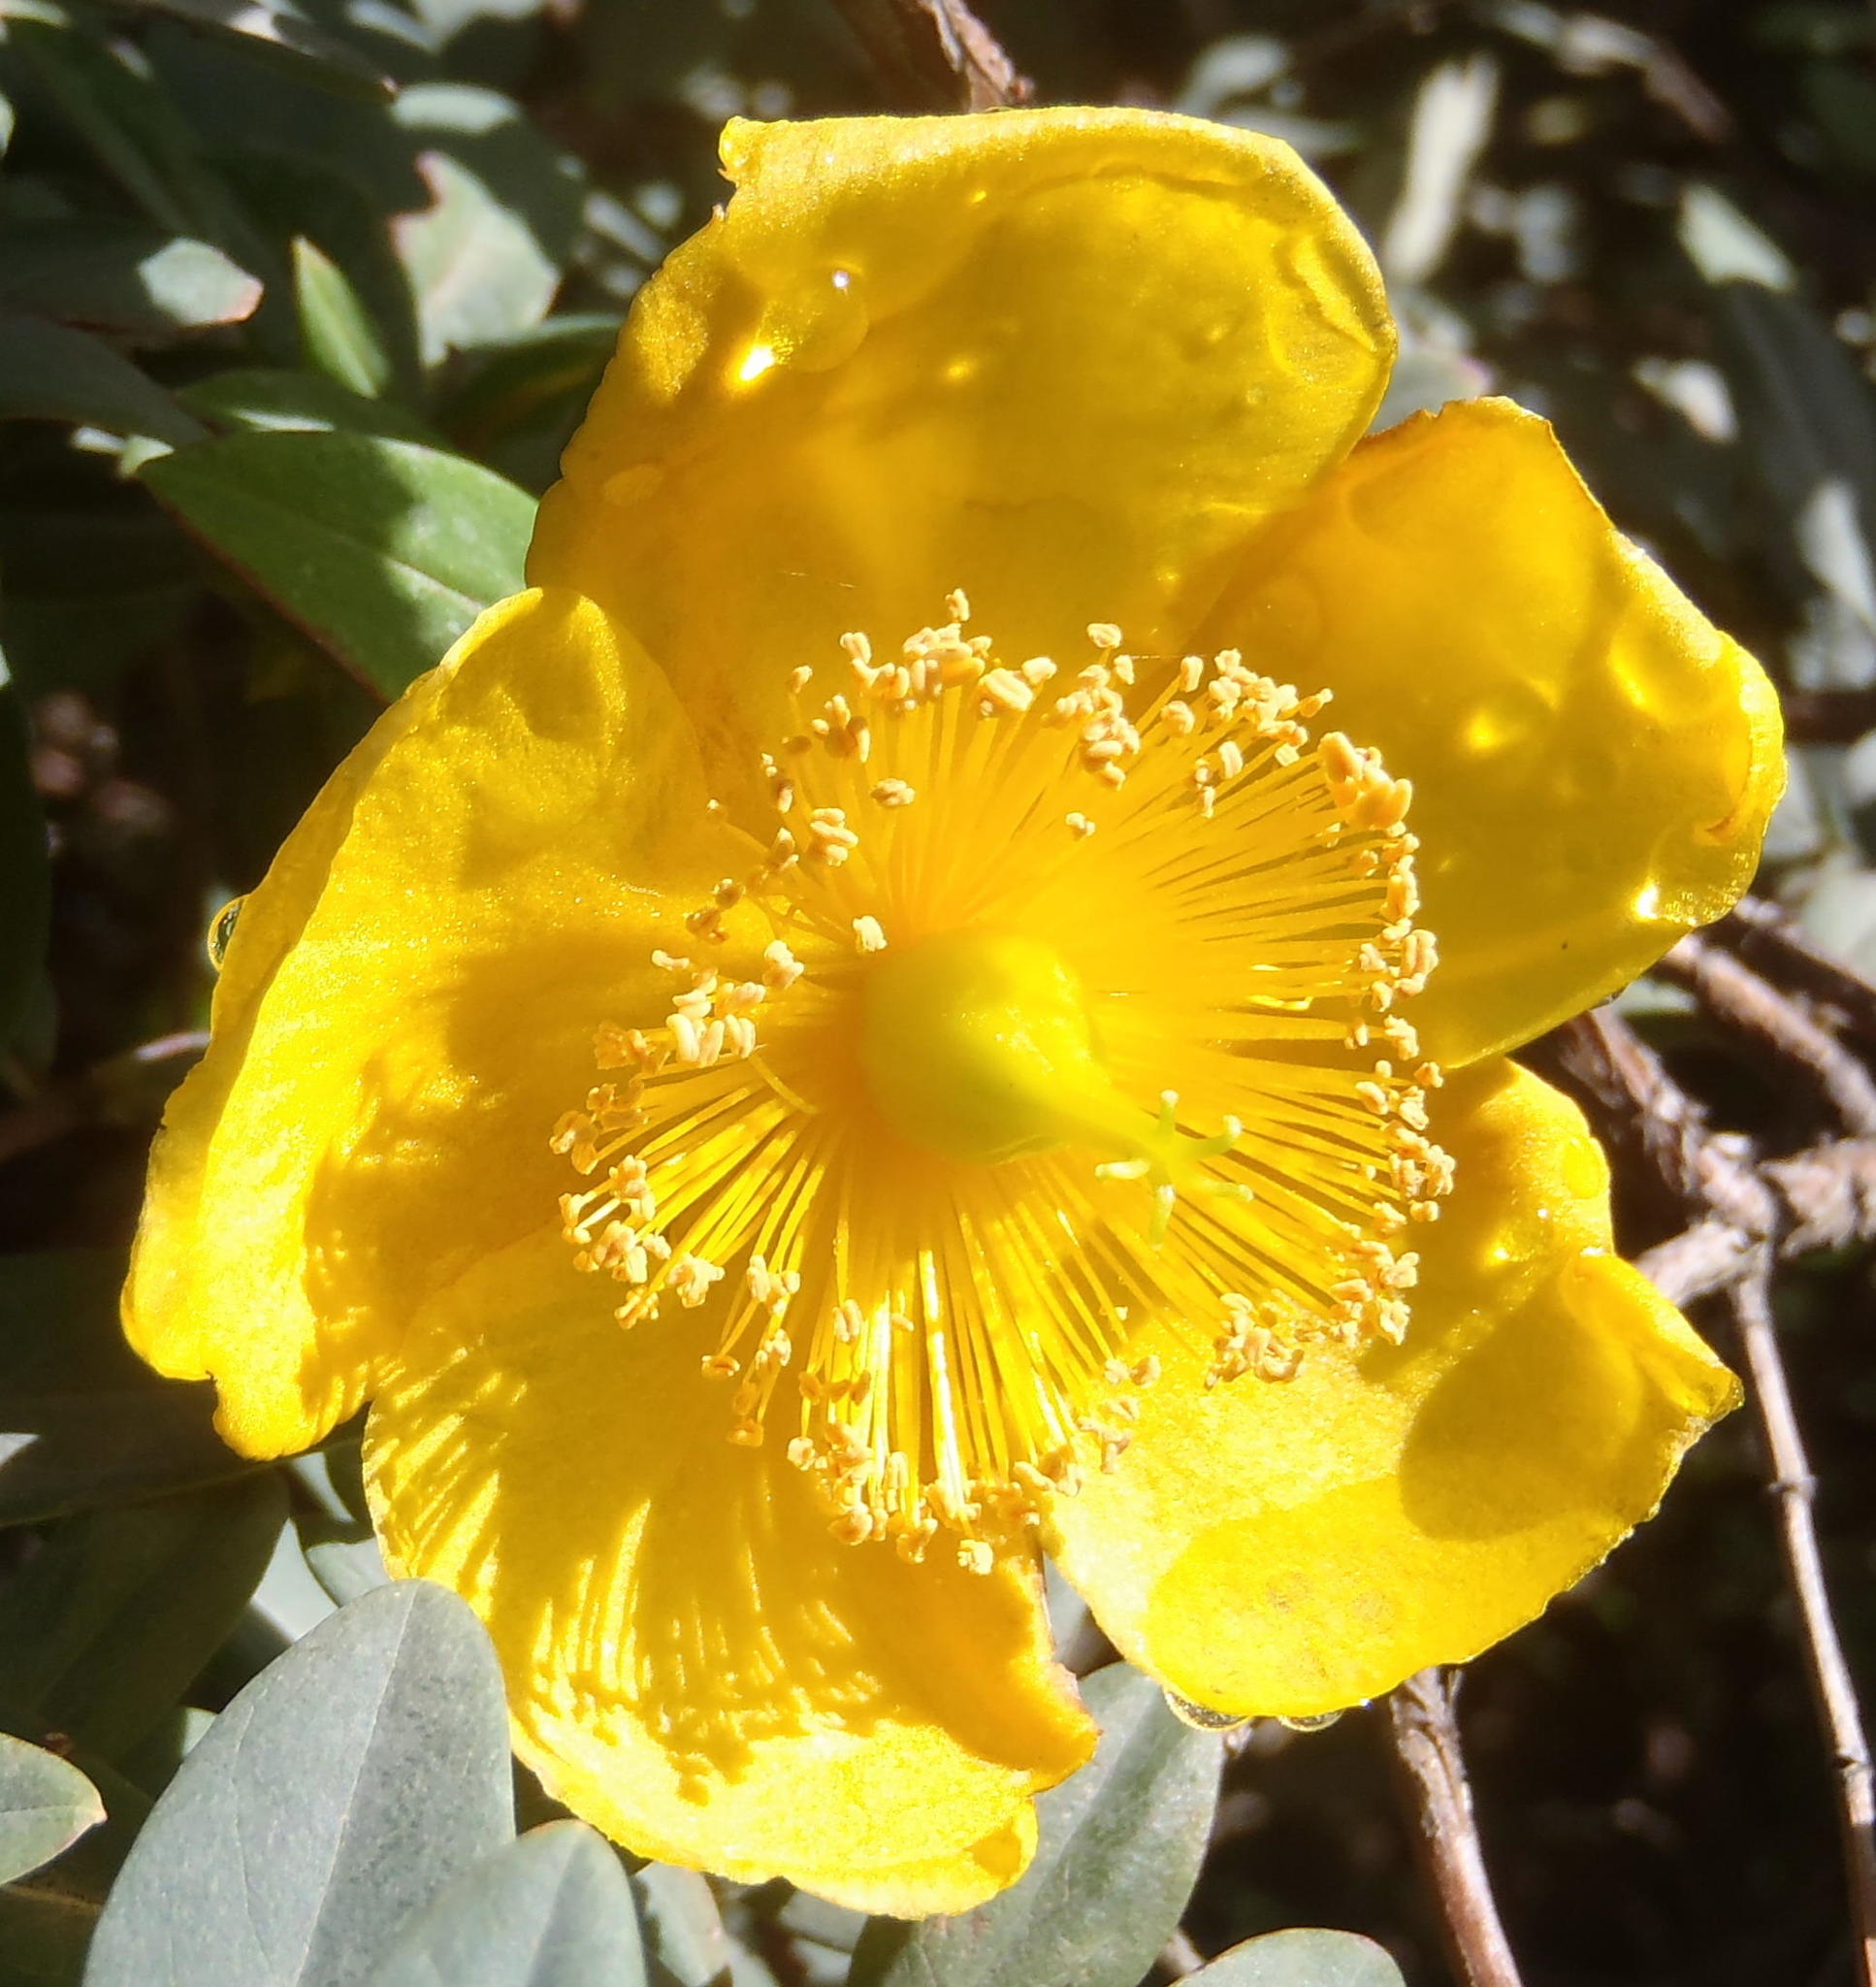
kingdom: Plantae
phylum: Tracheophyta
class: Magnoliopsida
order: Malpighiales
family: Hypericaceae
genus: Hypericum
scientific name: Hypericum roeperianum
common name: Large-leaved curry-bush
